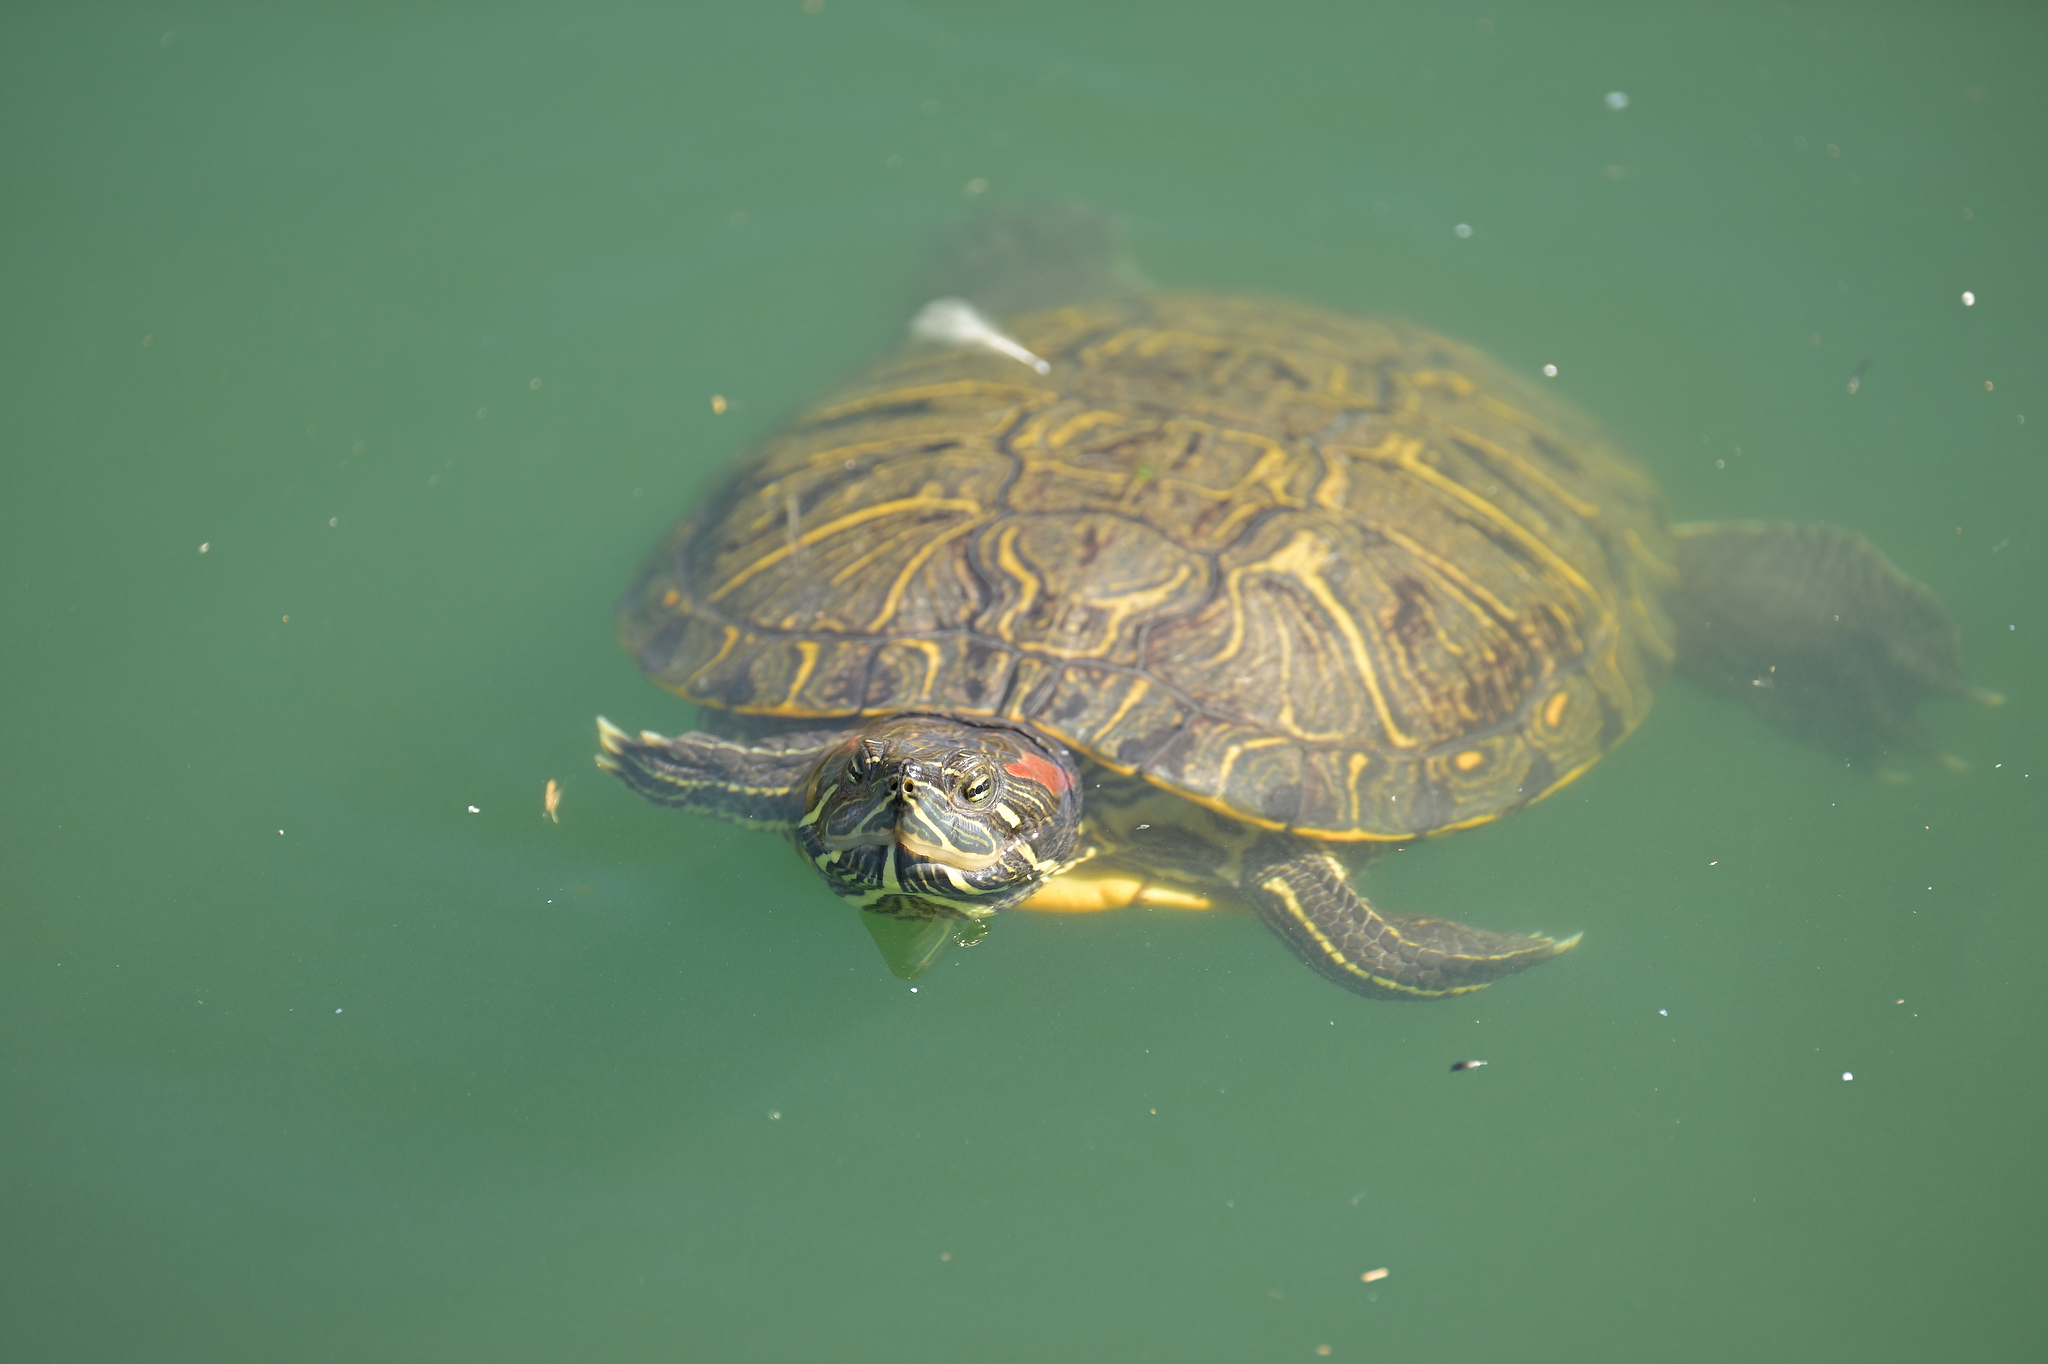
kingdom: Animalia
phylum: Chordata
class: Testudines
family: Emydidae
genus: Trachemys
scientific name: Trachemys scripta
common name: Slider
